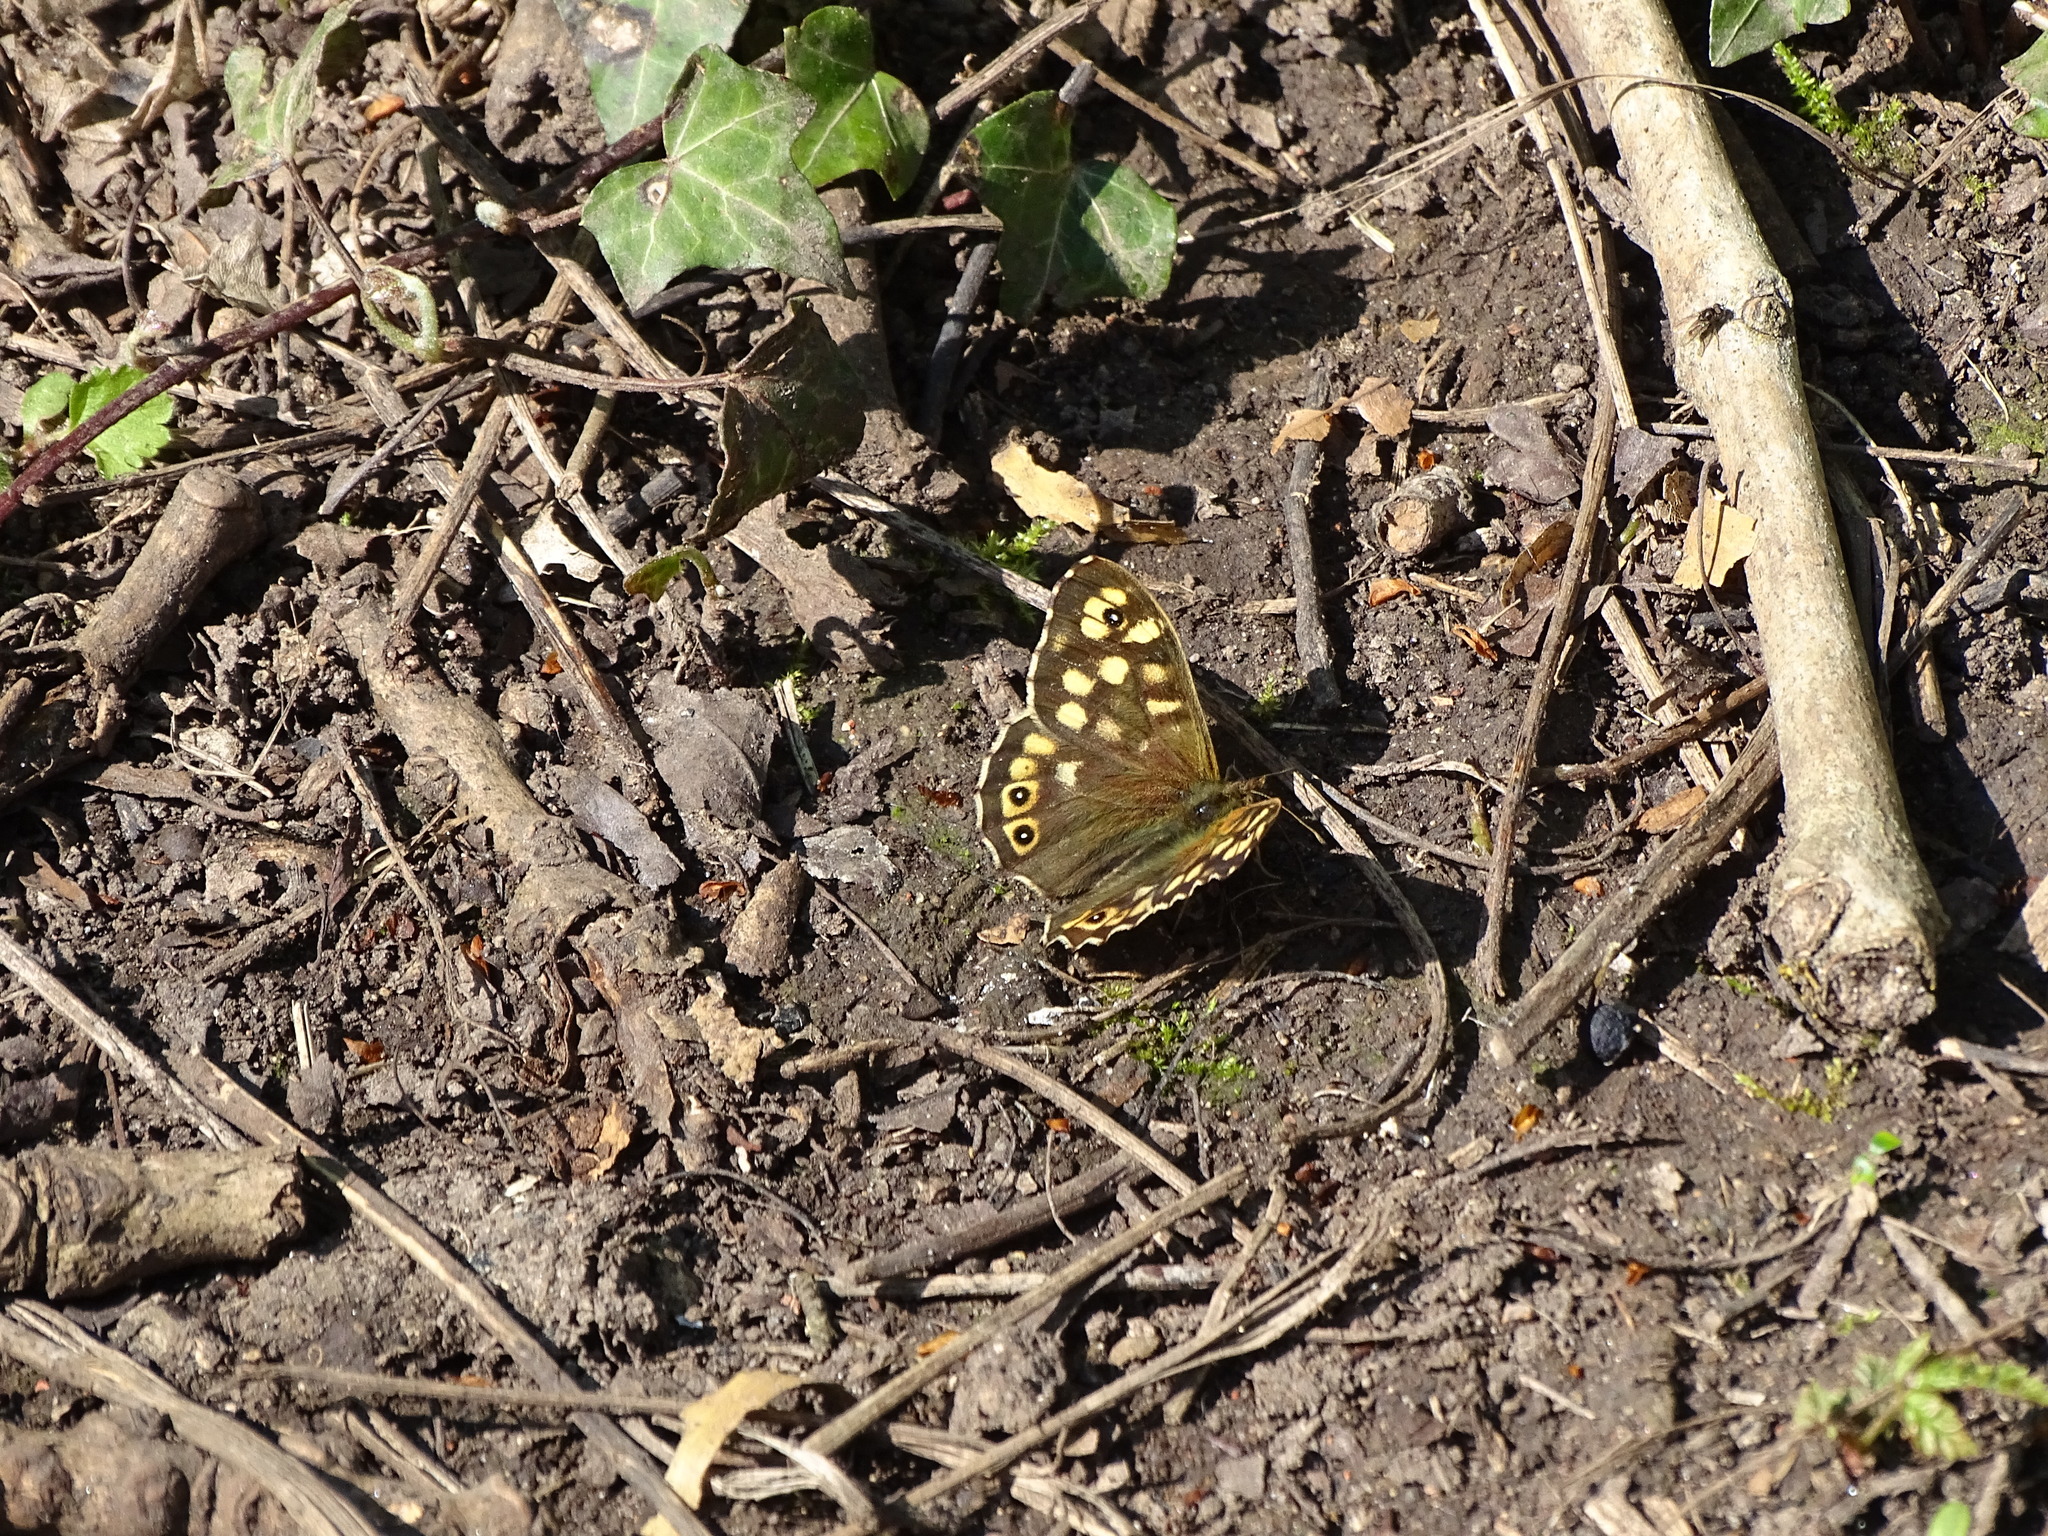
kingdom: Animalia
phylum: Arthropoda
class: Insecta
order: Lepidoptera
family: Nymphalidae
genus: Pararge
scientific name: Pararge aegeria
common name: Speckled wood
